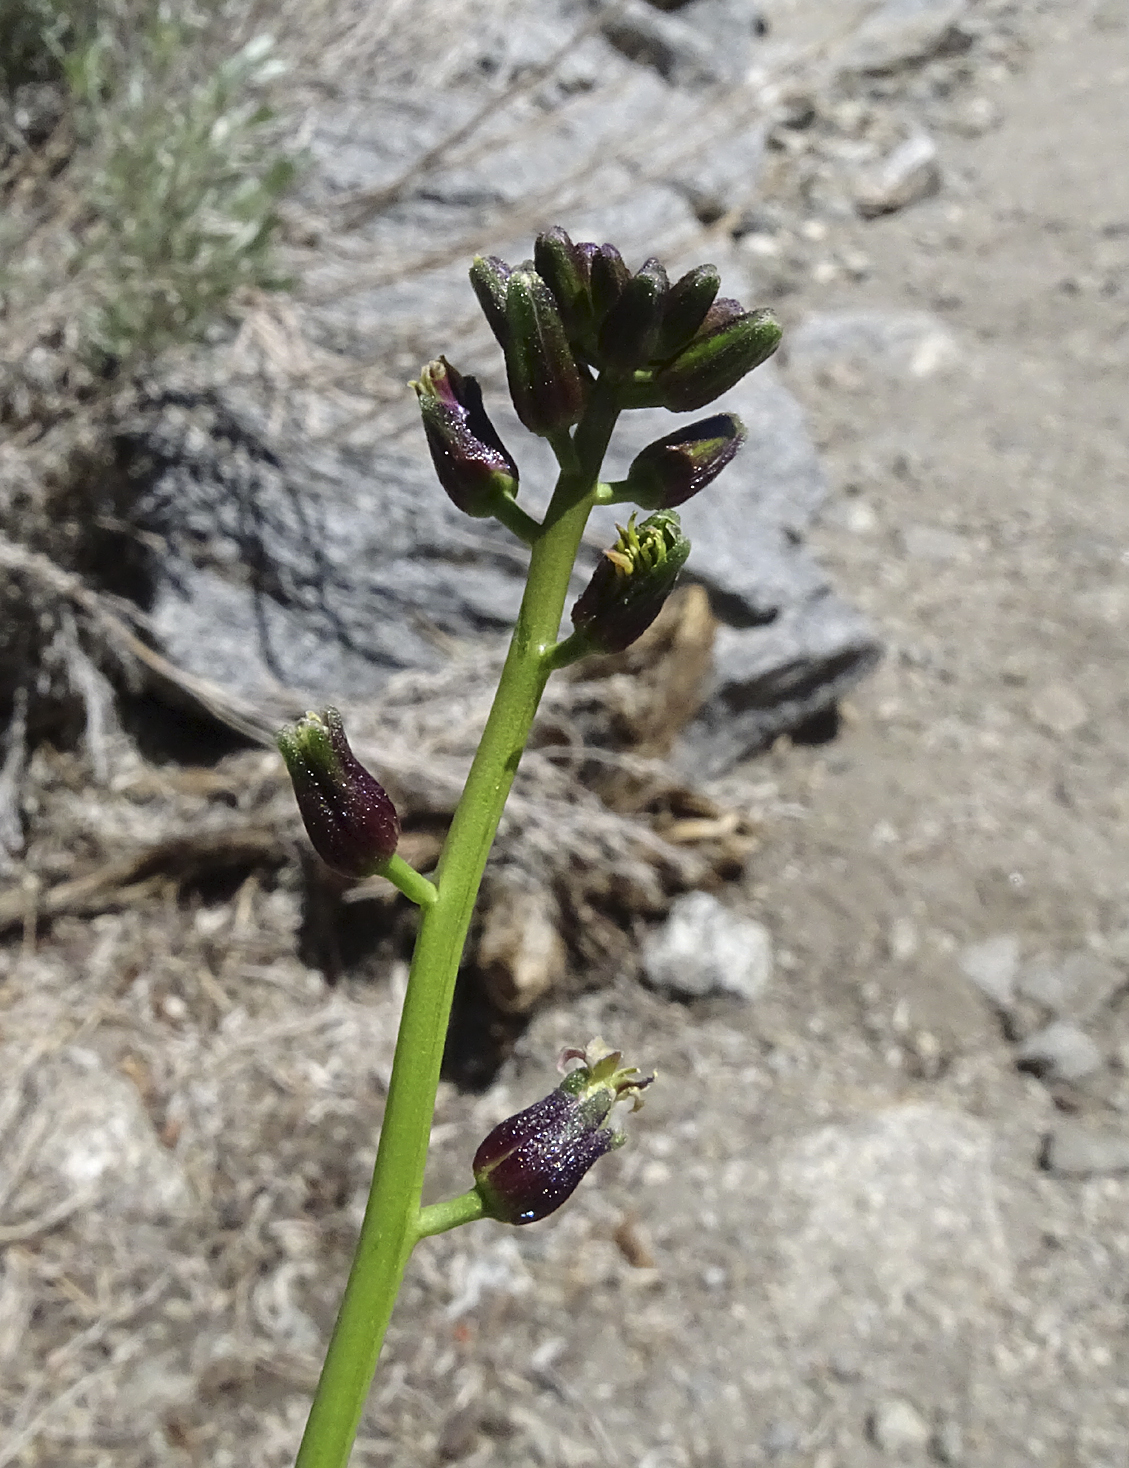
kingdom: Plantae
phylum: Tracheophyta
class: Magnoliopsida
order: Brassicales
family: Brassicaceae
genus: Streptanthus
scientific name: Streptanthus pilosus
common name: Chocolate drops
